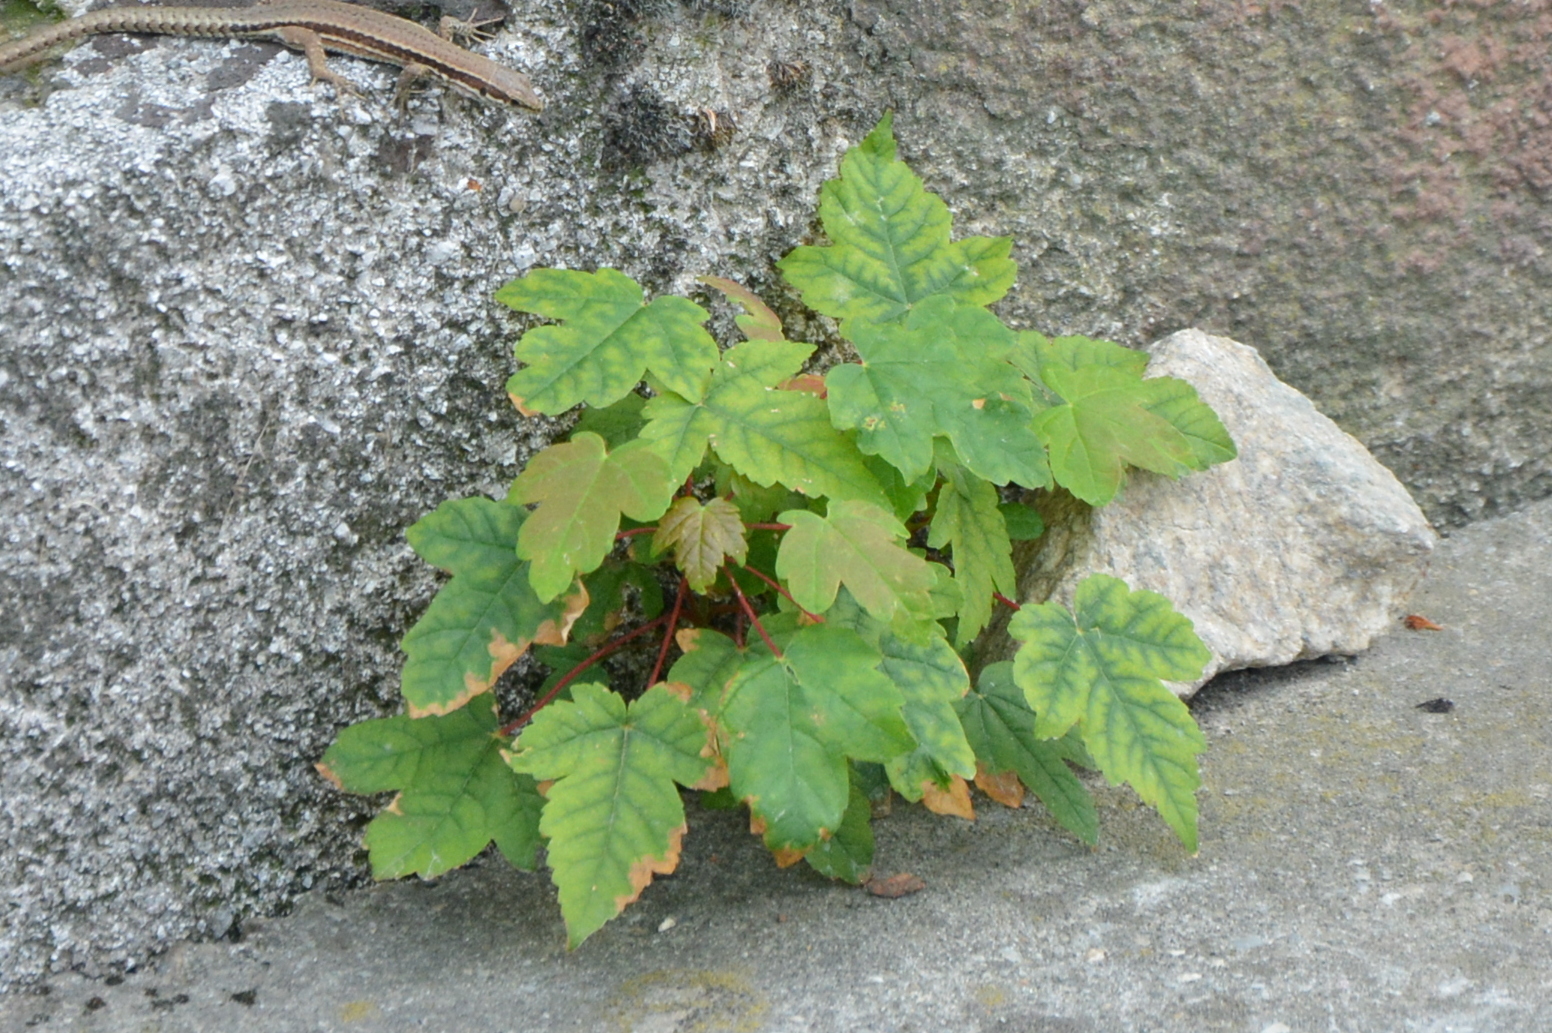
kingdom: Plantae
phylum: Tracheophyta
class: Magnoliopsida
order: Sapindales
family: Sapindaceae
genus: Acer
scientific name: Acer pseudoplatanus
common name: Sycamore
